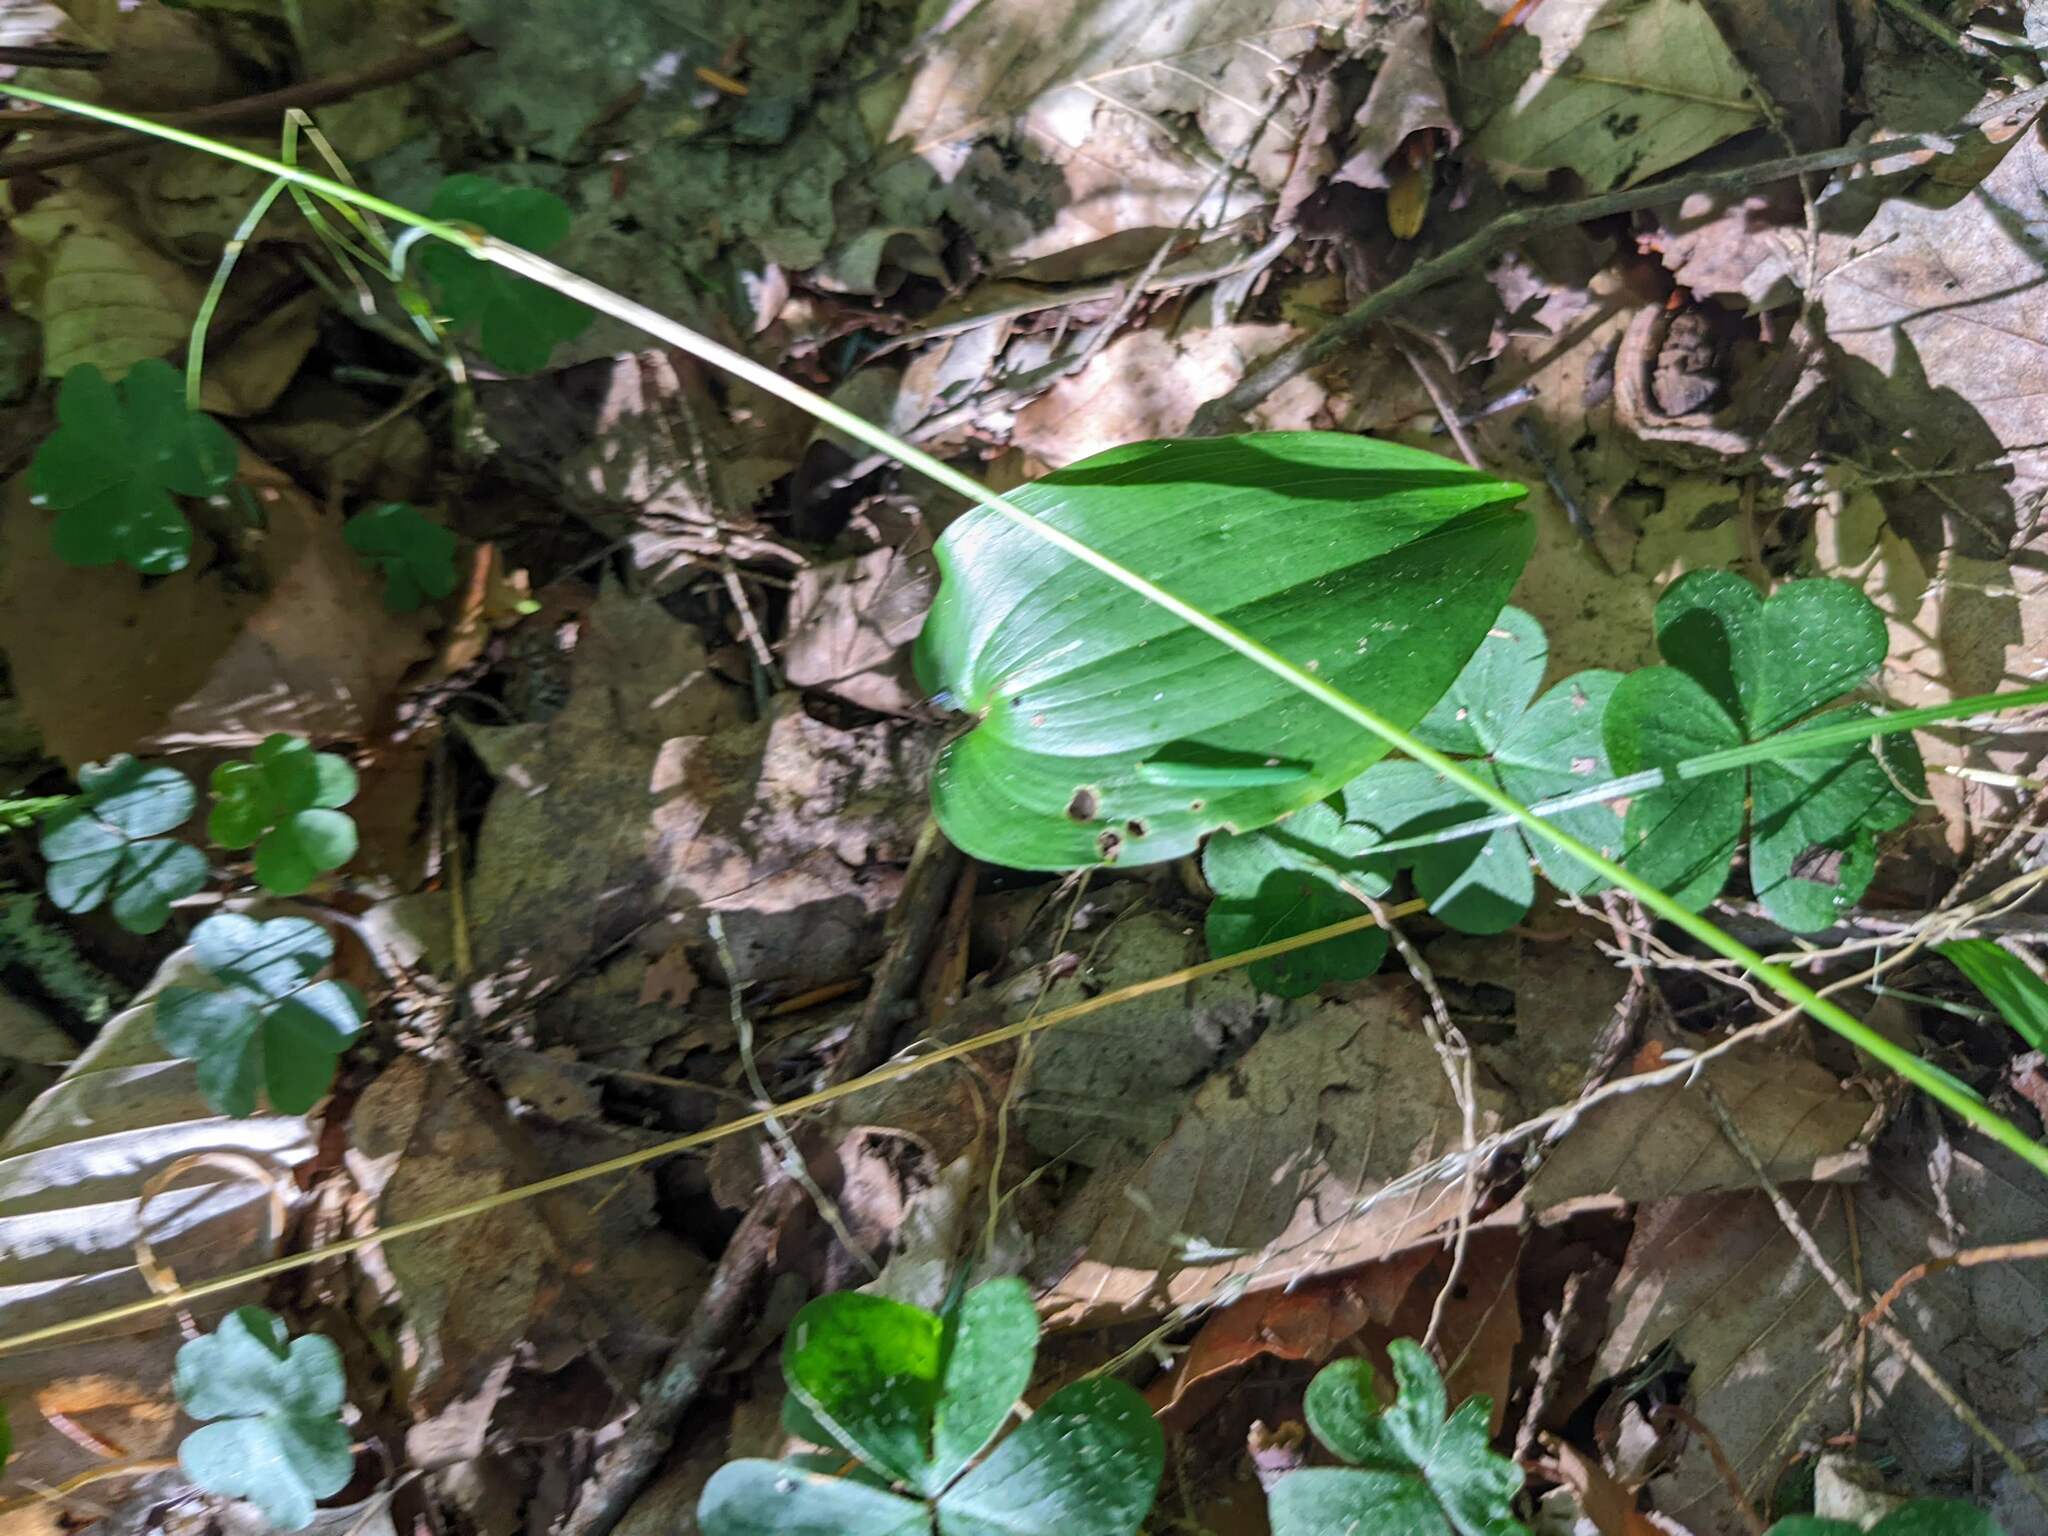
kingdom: Plantae
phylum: Tracheophyta
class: Liliopsida
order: Asparagales
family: Asparagaceae
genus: Maianthemum
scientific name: Maianthemum canadense
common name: False lily-of-the-valley
